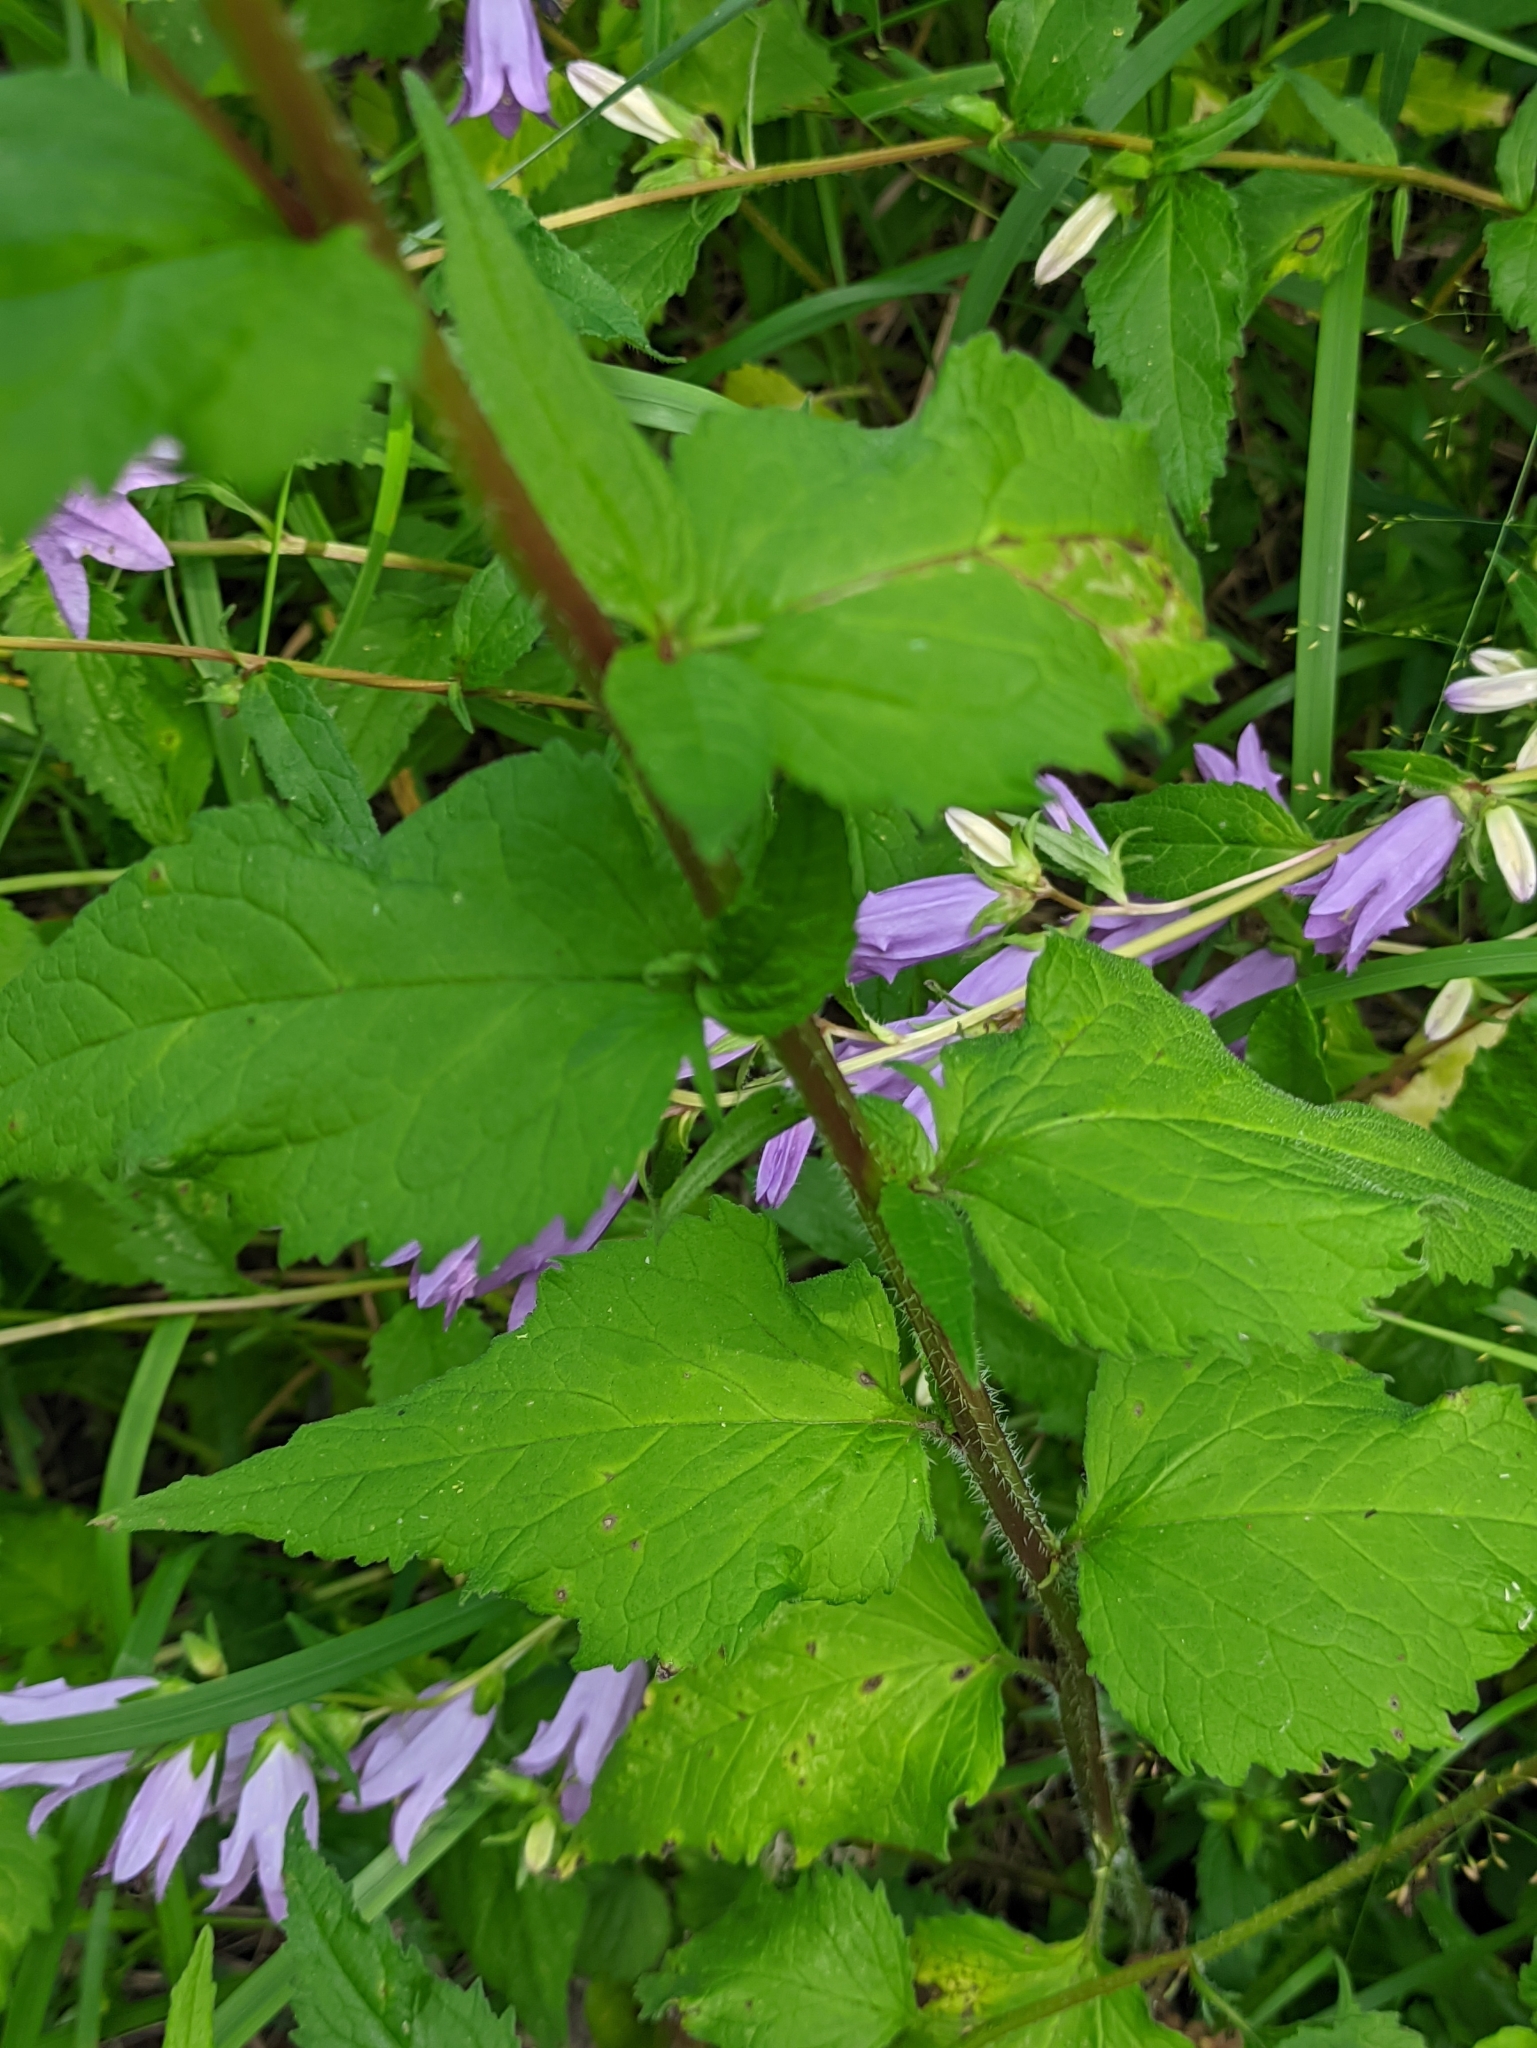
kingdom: Plantae
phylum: Tracheophyta
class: Magnoliopsida
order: Asterales
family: Campanulaceae
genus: Campanula
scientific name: Campanula trachelium
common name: Nettle-leaved bellflower
